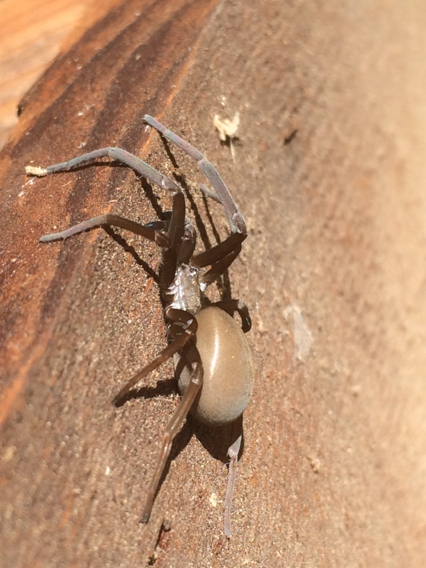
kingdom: Animalia
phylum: Arthropoda
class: Arachnida
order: Araneae
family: Filistatidae
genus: Kukulcania
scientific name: Kukulcania hibernalis
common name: Crevice weaver
